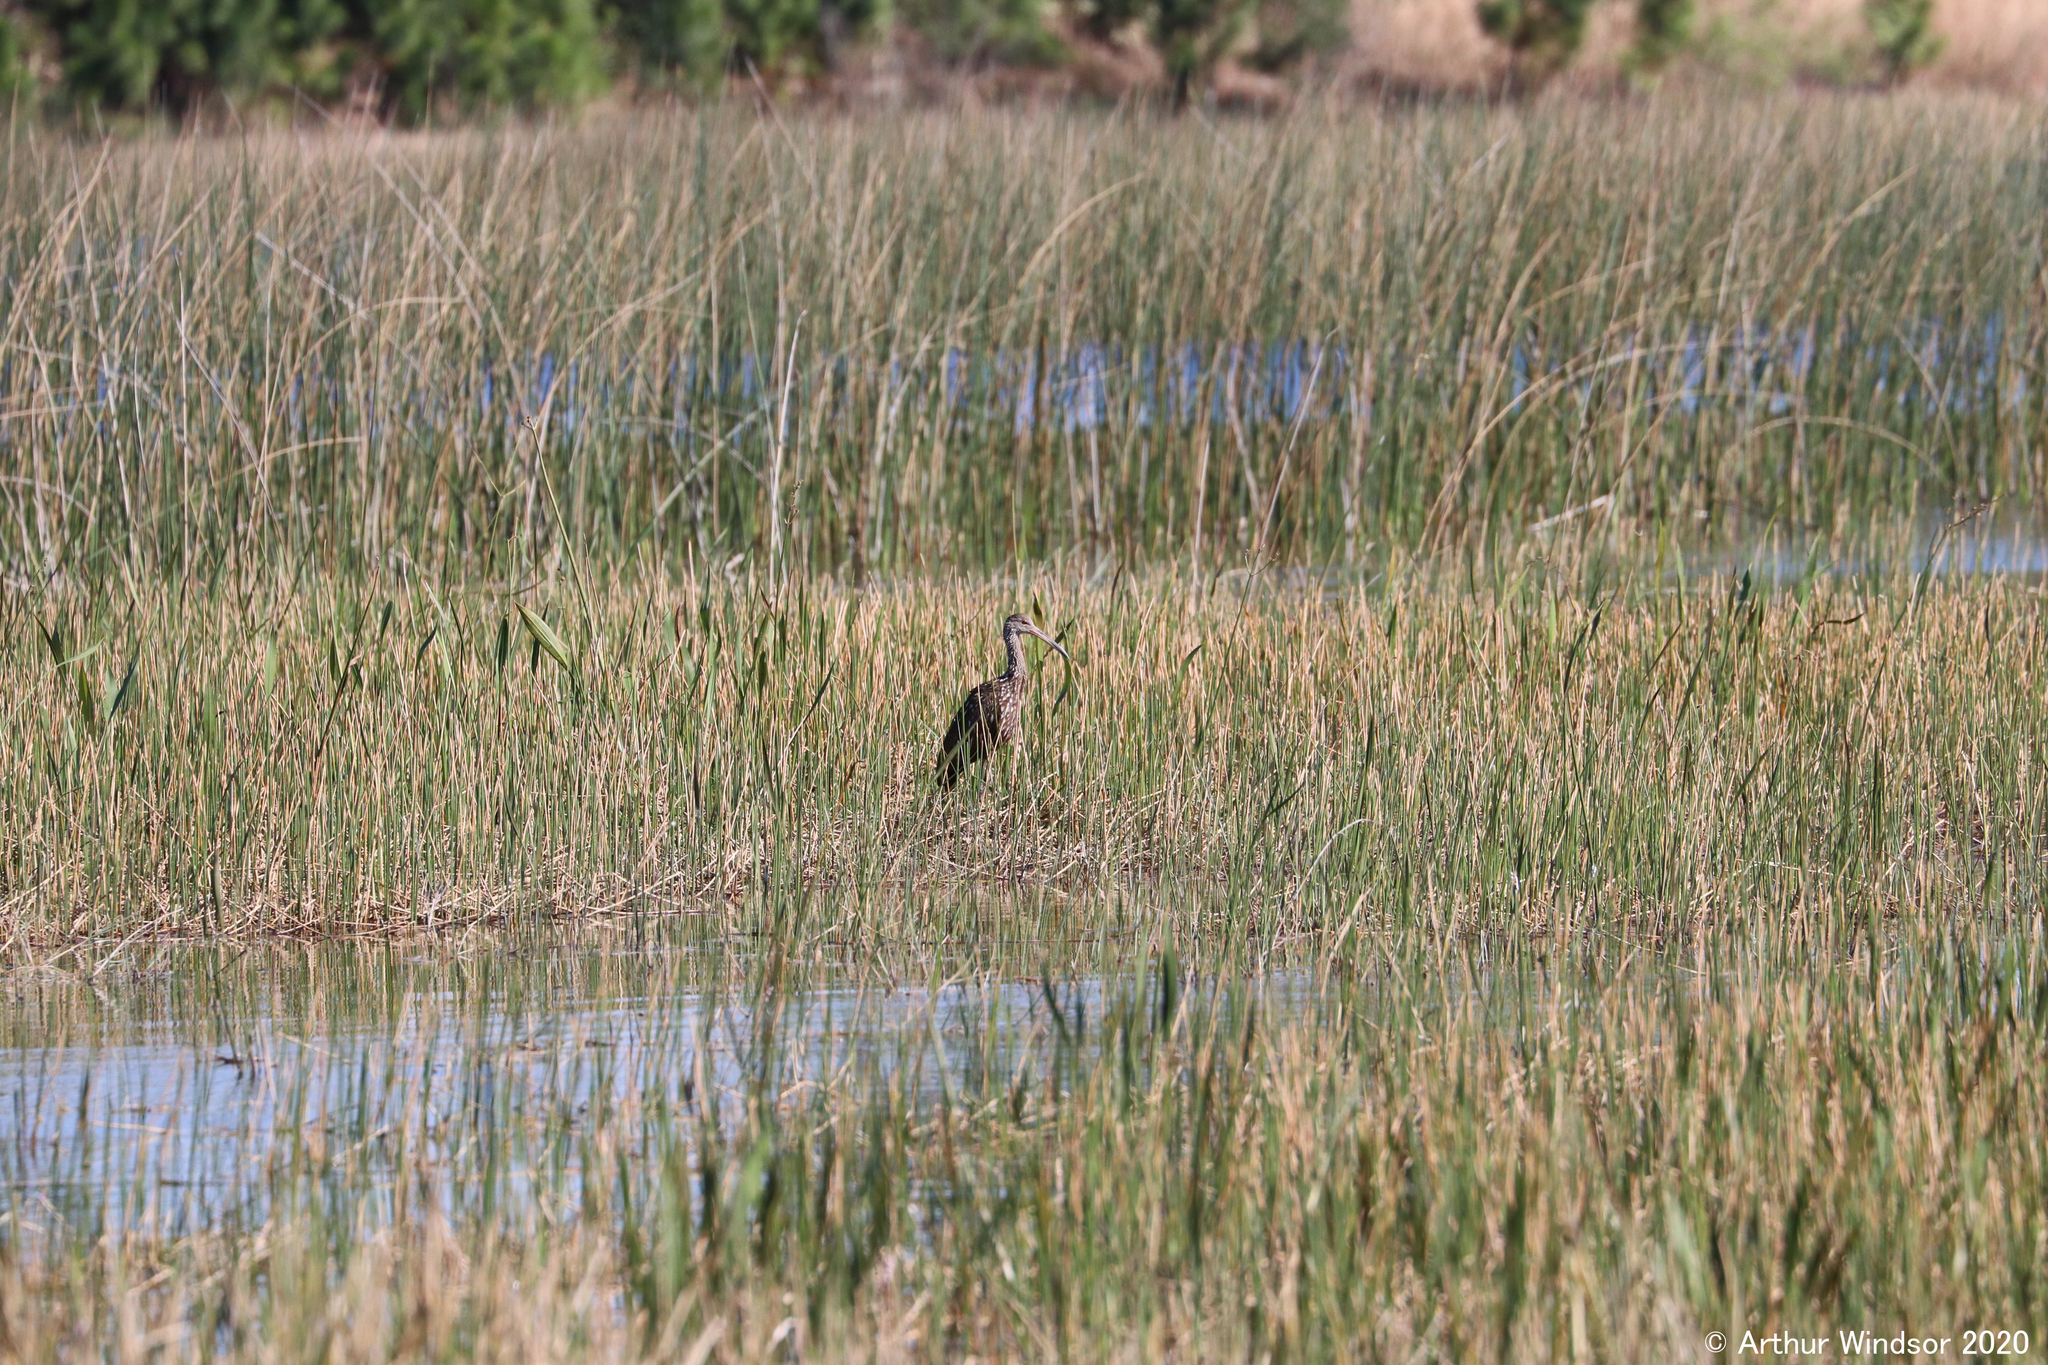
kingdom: Animalia
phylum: Chordata
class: Aves
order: Gruiformes
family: Aramidae
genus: Aramus
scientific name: Aramus guarauna
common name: Limpkin
